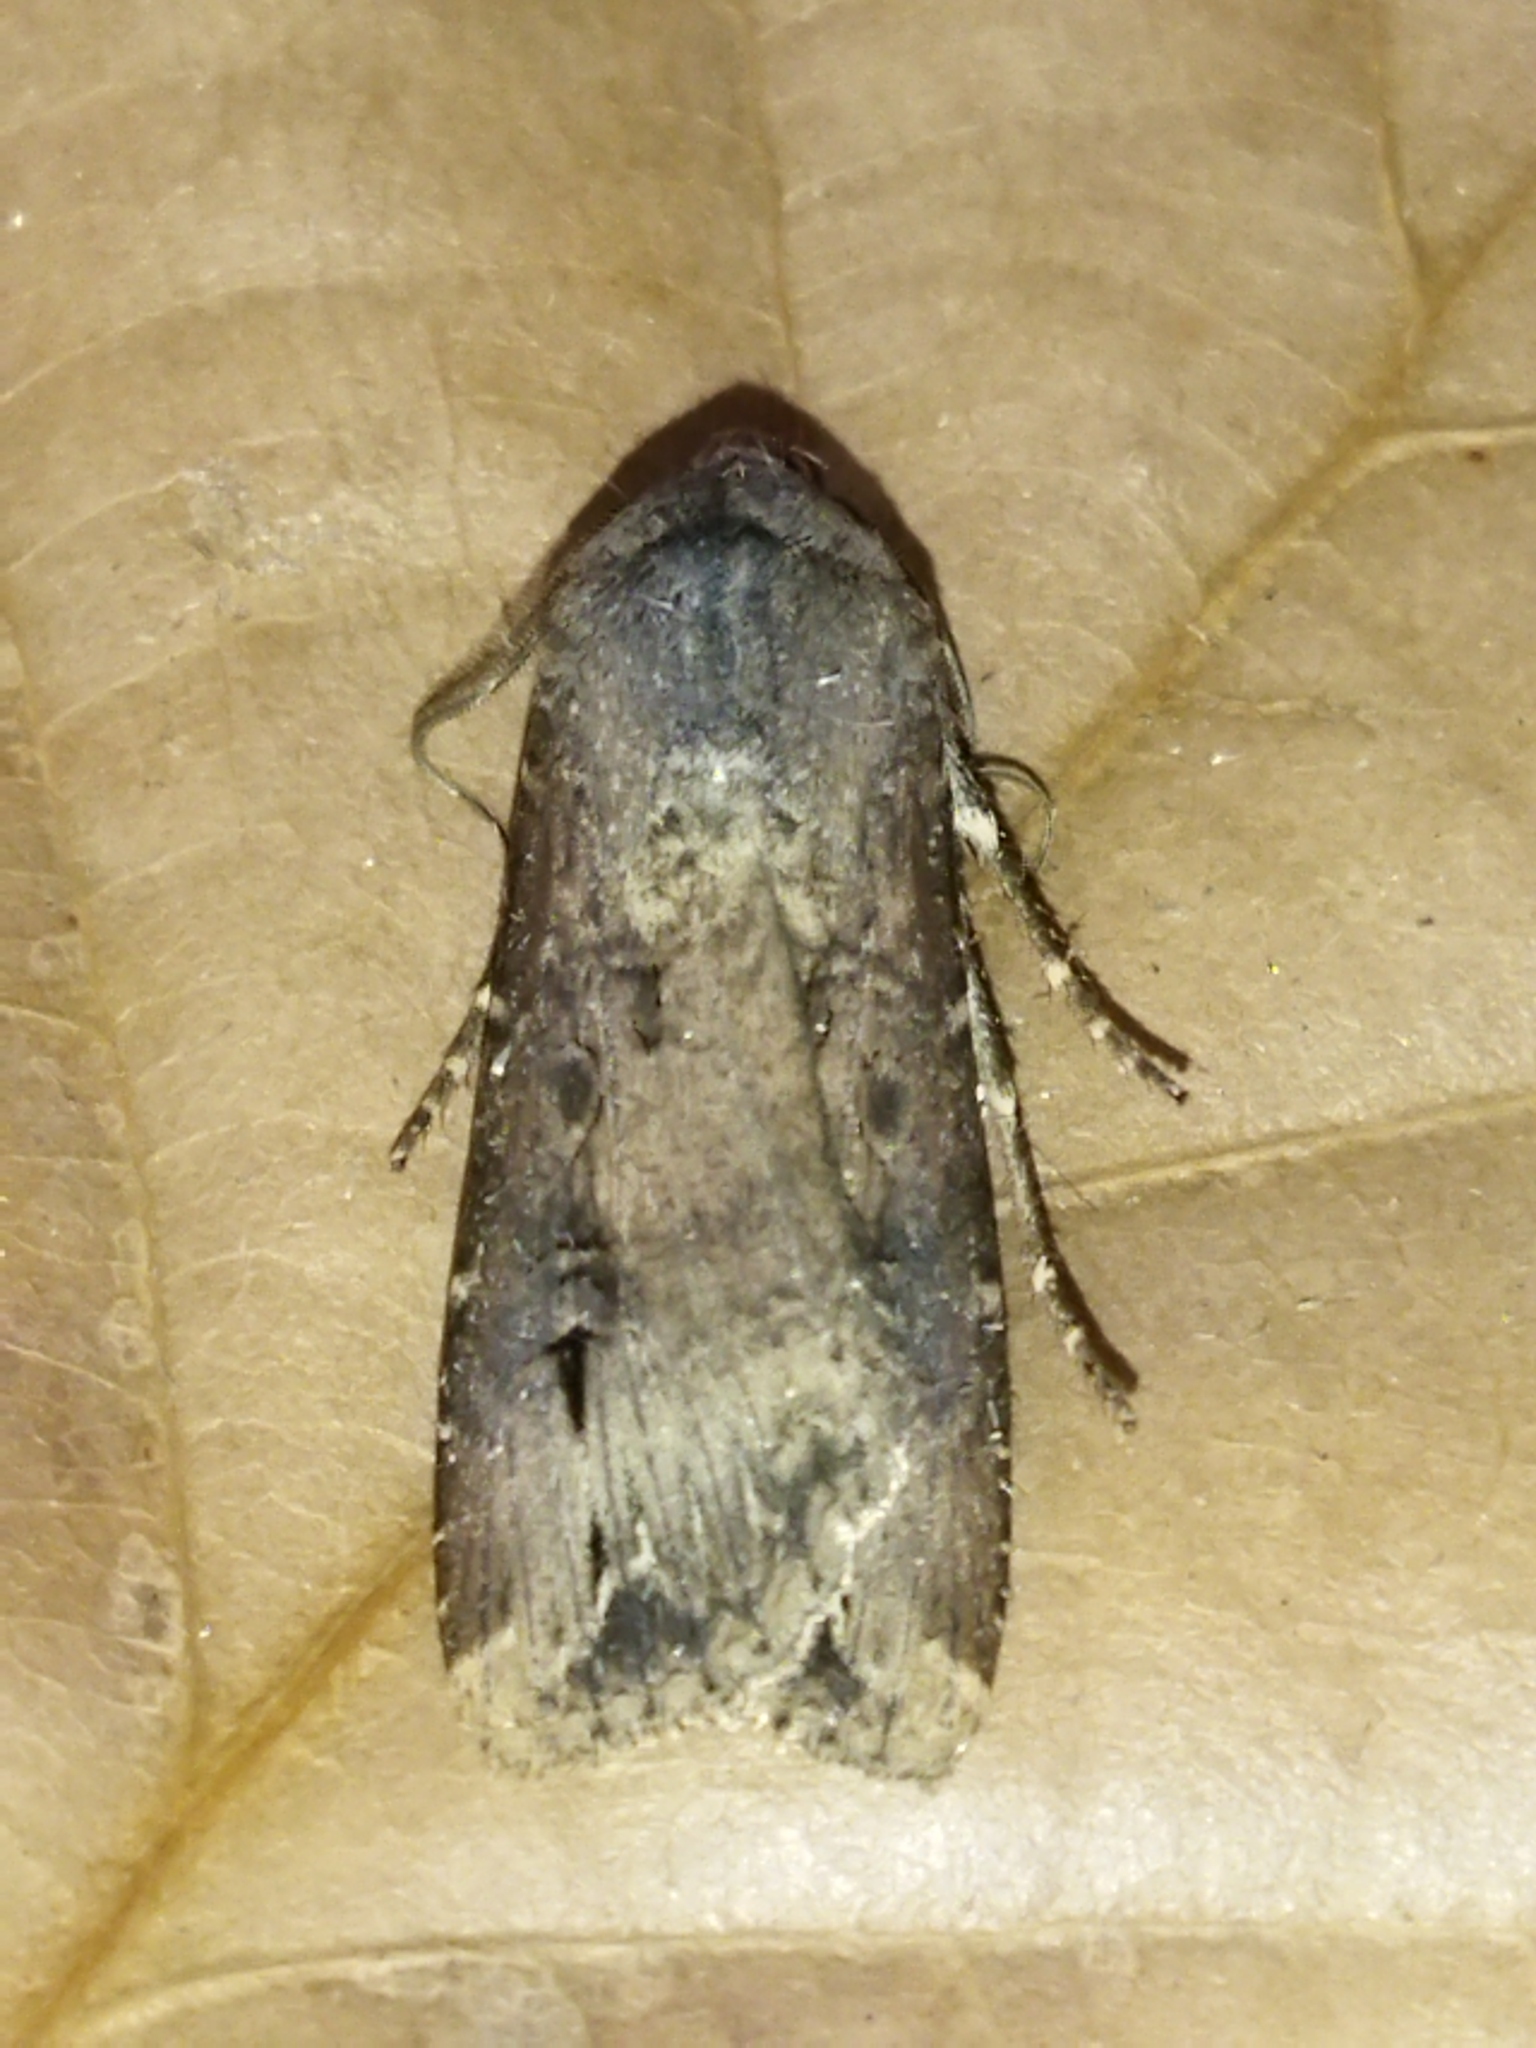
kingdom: Animalia
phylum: Arthropoda
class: Insecta
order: Lepidoptera
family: Noctuidae
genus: Agrotis
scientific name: Agrotis ipsilon
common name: Dark sword-grass
